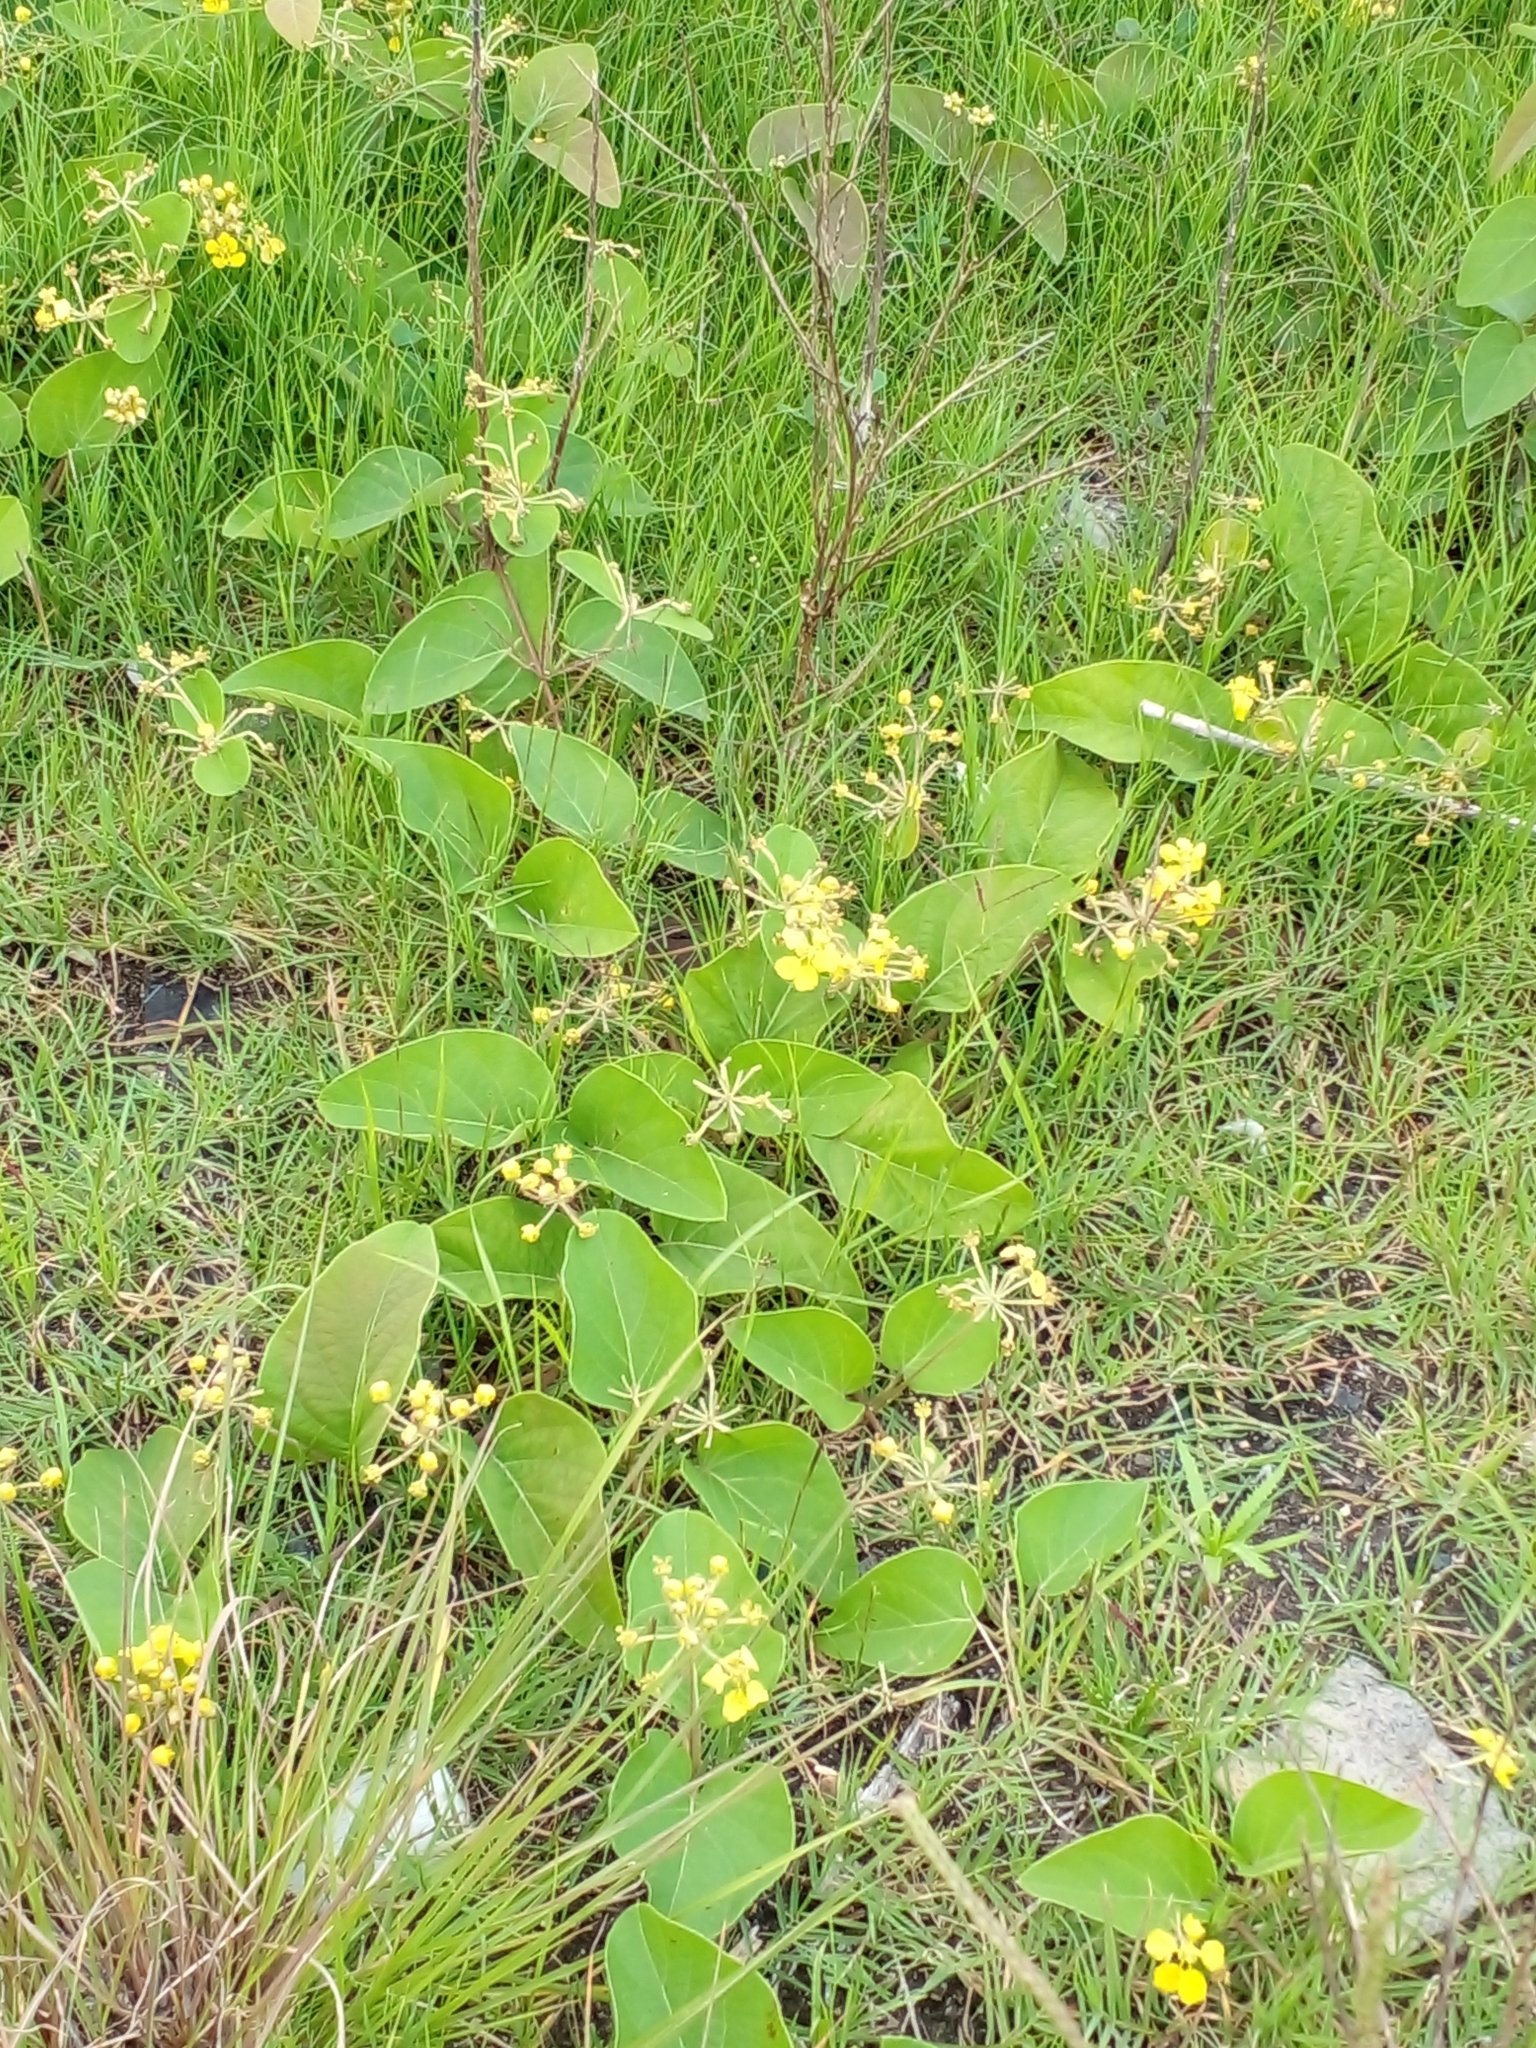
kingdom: Plantae
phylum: Tracheophyta
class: Magnoliopsida
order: Malpighiales
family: Malpighiaceae
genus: Stigmaphyllon
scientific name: Stigmaphyllon bonariense
